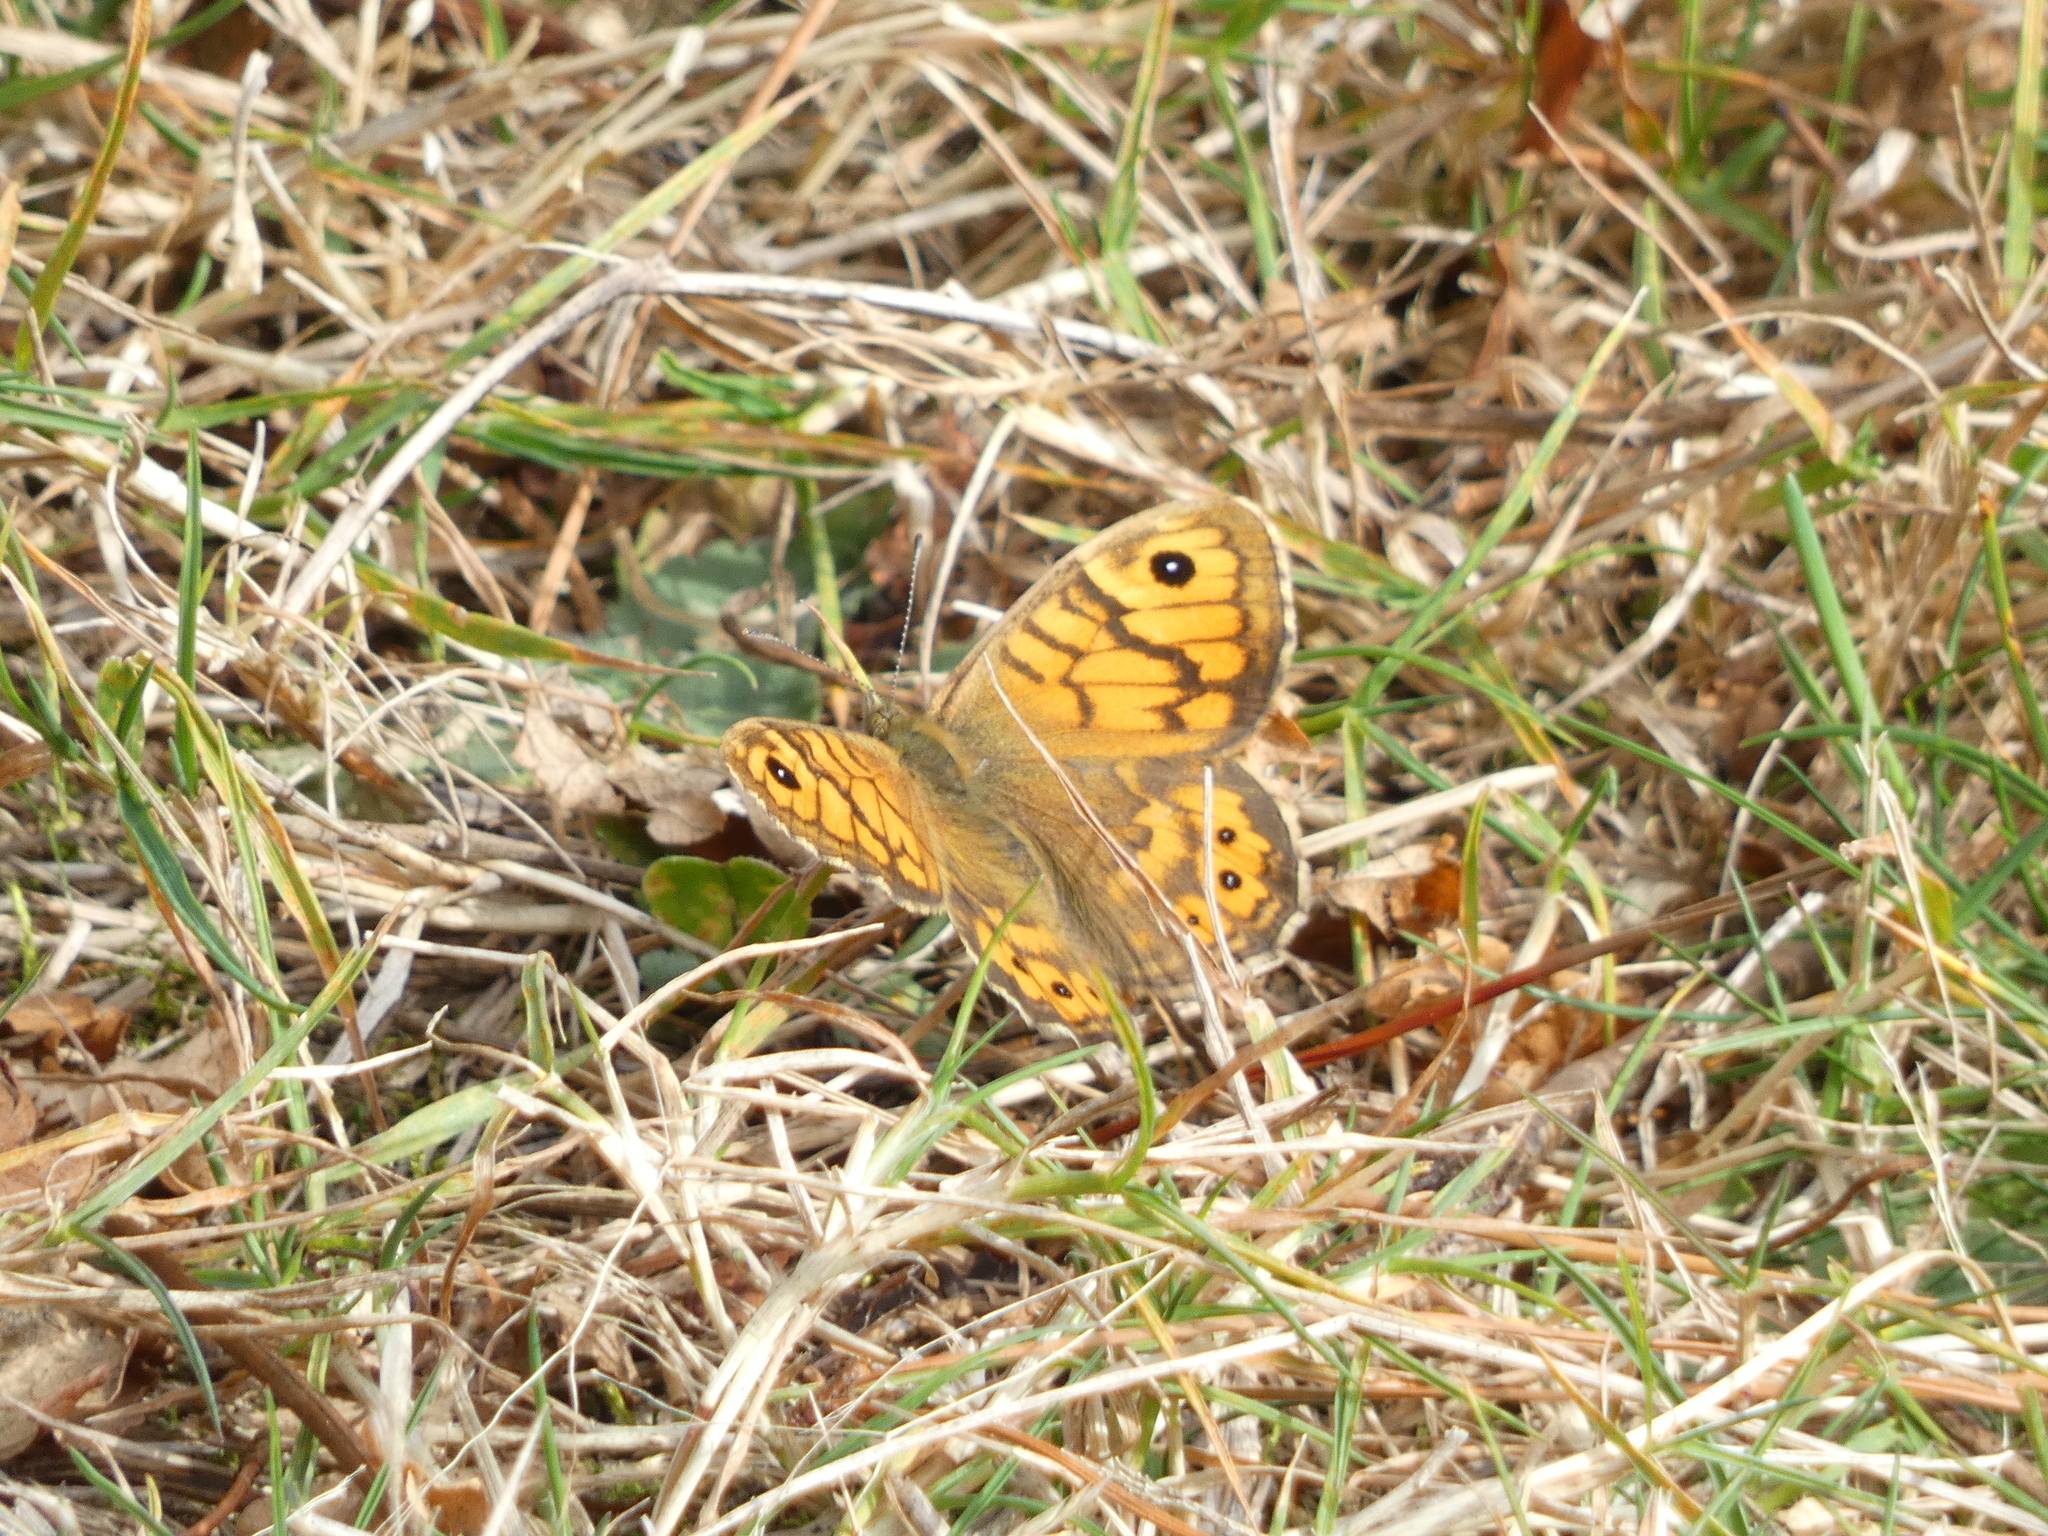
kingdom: Animalia
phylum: Arthropoda
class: Insecta
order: Lepidoptera
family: Nymphalidae
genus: Pararge
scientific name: Pararge Lasiommata megera
